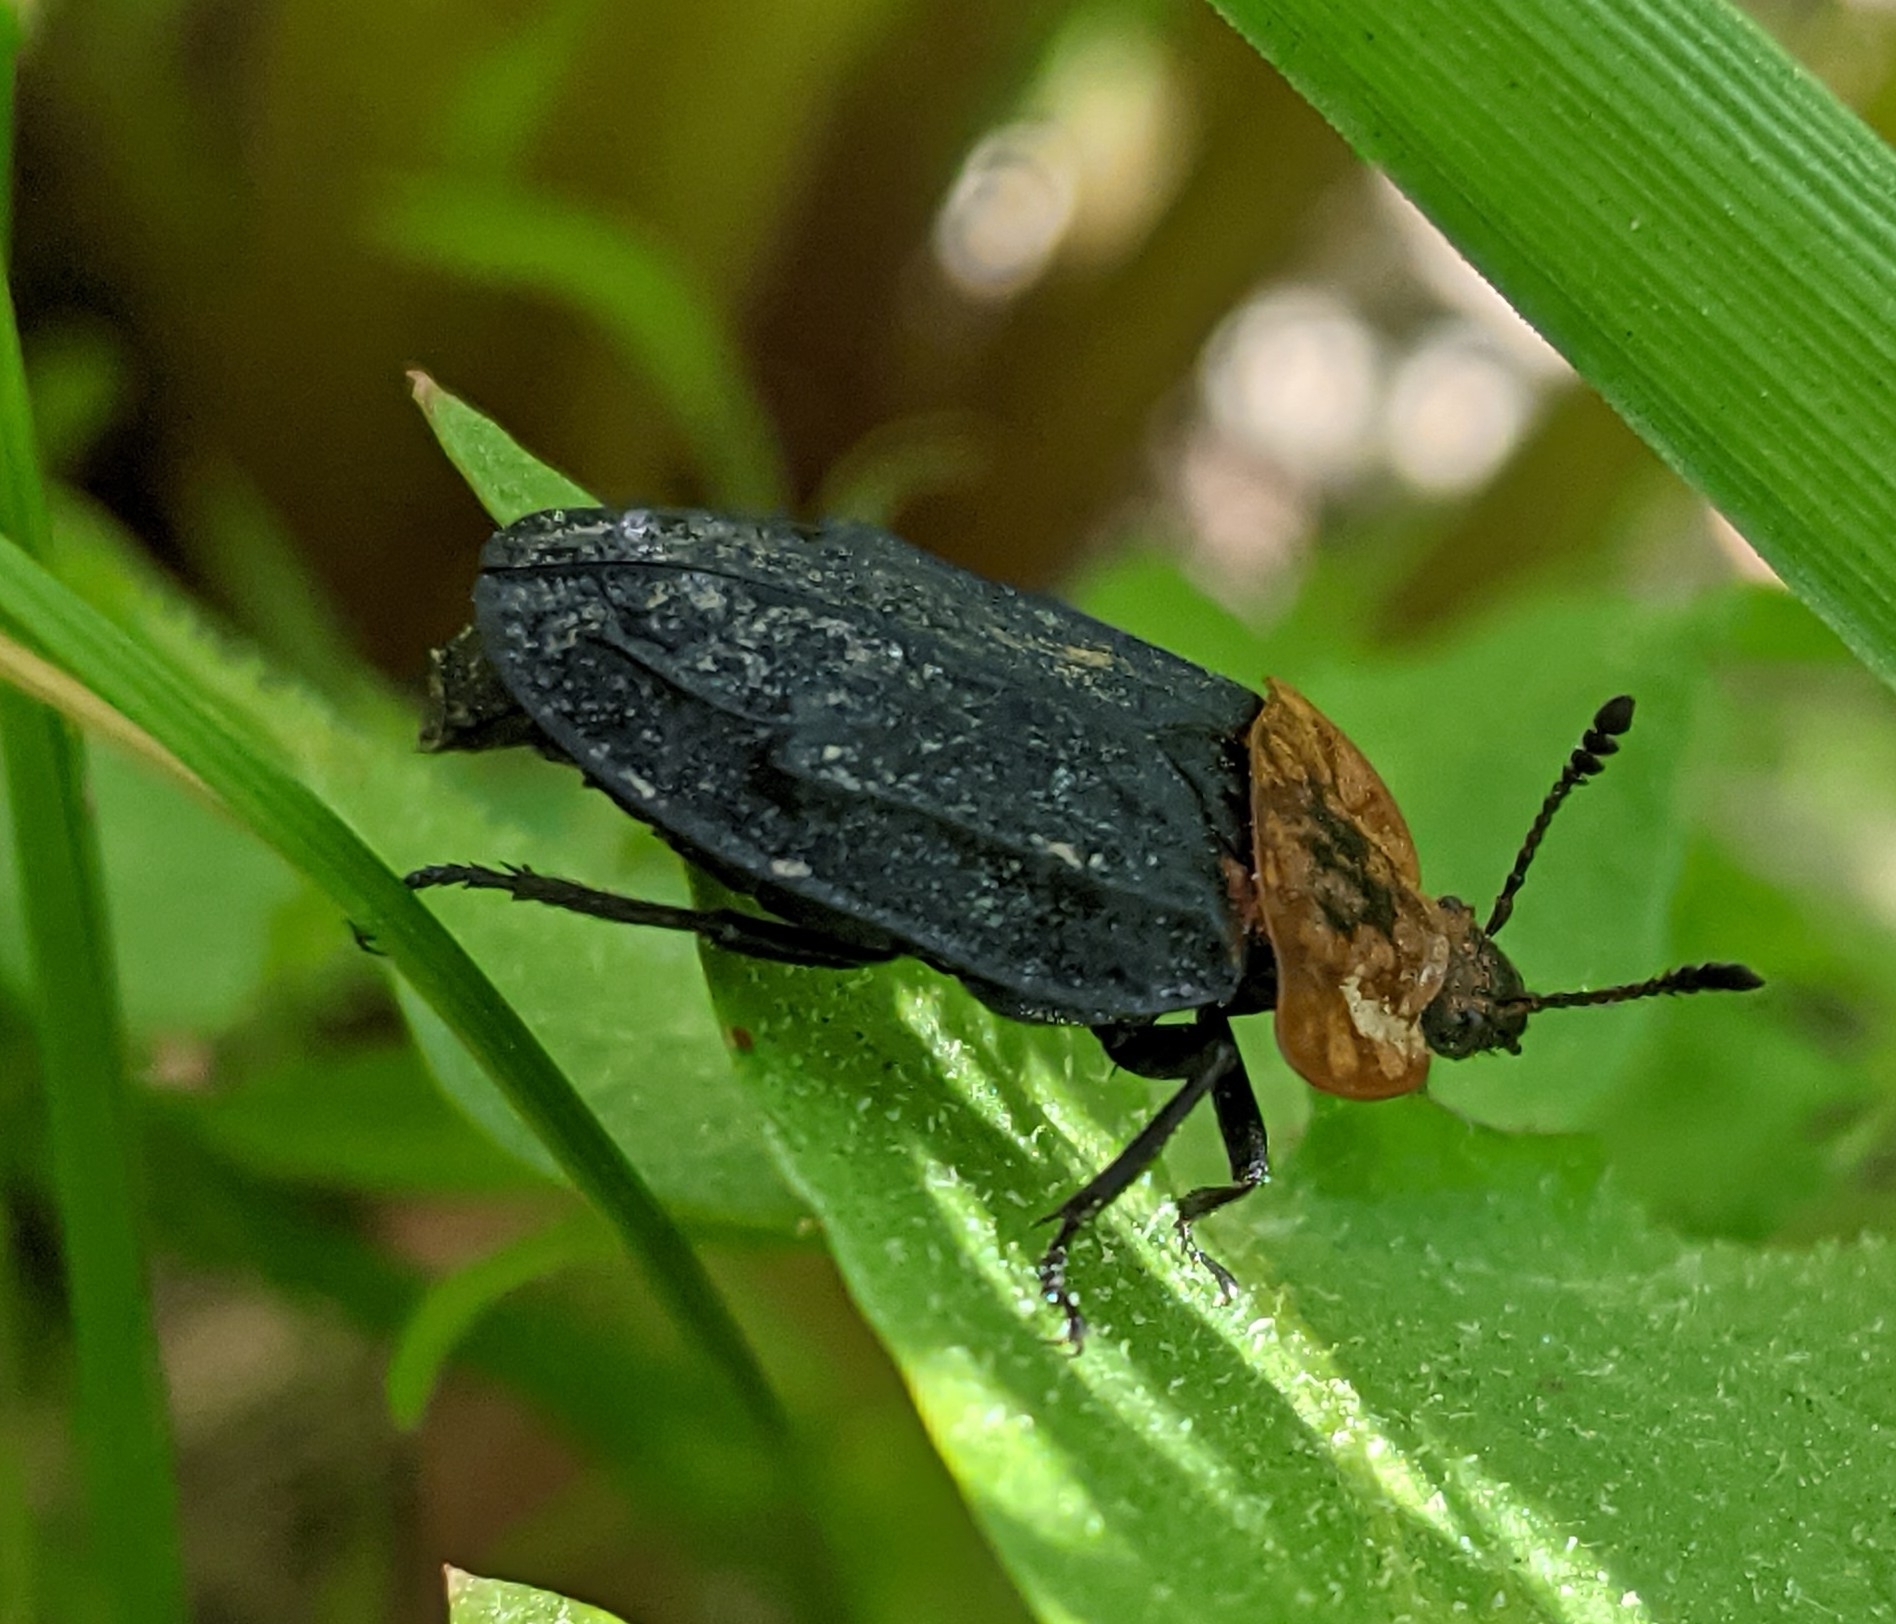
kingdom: Animalia
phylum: Arthropoda
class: Insecta
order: Coleoptera
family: Staphylinidae
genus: Oiceoptoma
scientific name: Oiceoptoma thoracicum
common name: Red-breasted carrion beetle
